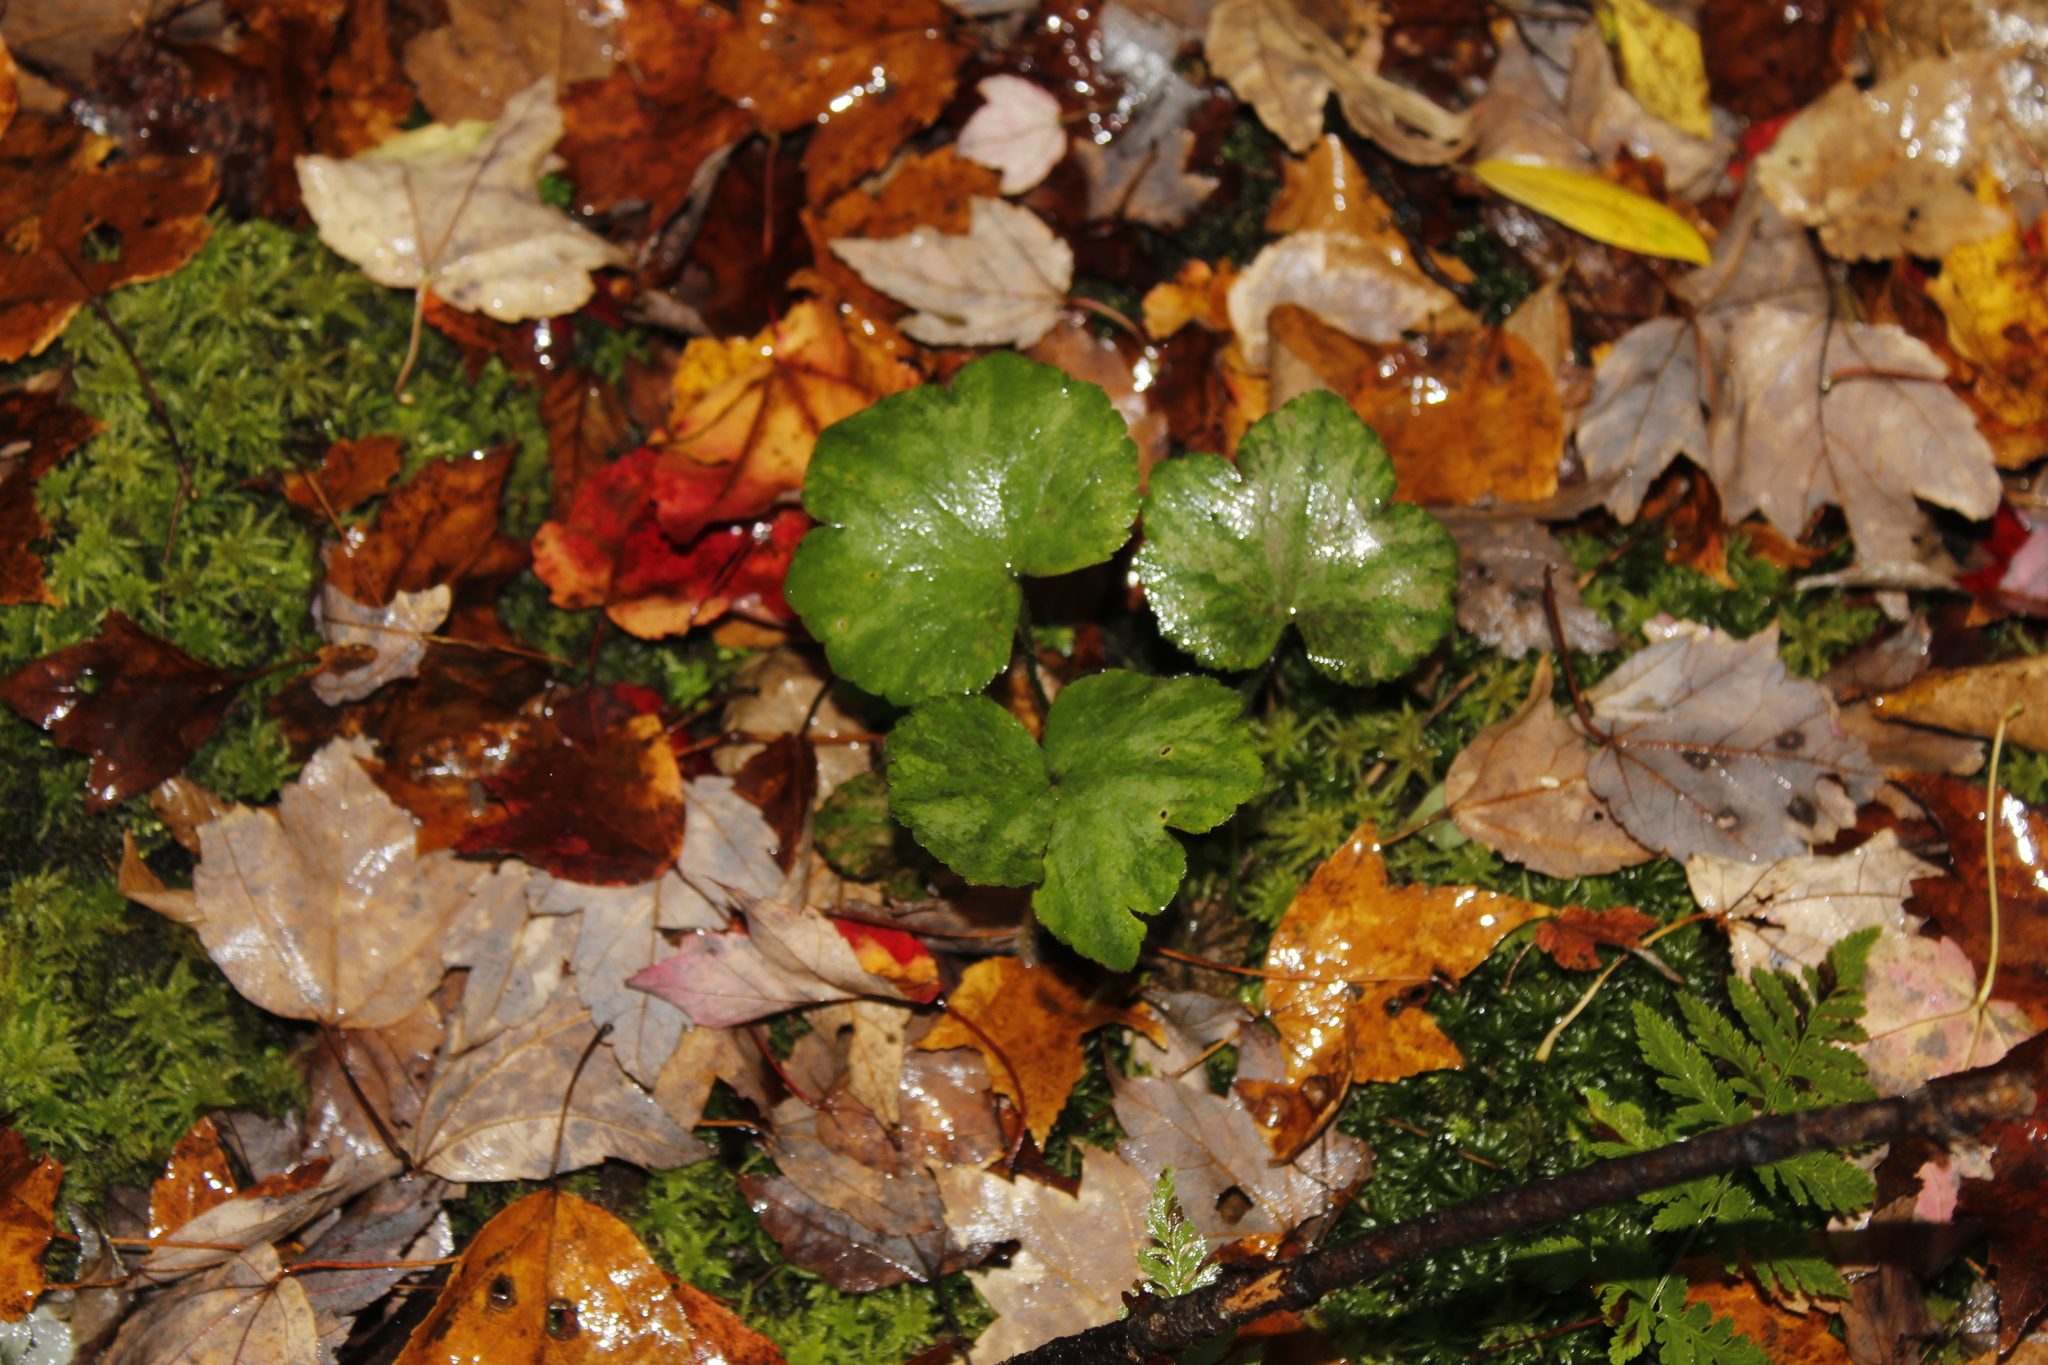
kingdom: Plantae
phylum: Tracheophyta
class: Magnoliopsida
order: Saxifragales
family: Saxifragaceae
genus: Tiarella
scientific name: Tiarella stolonifera
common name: Stoloniferous foamflower
